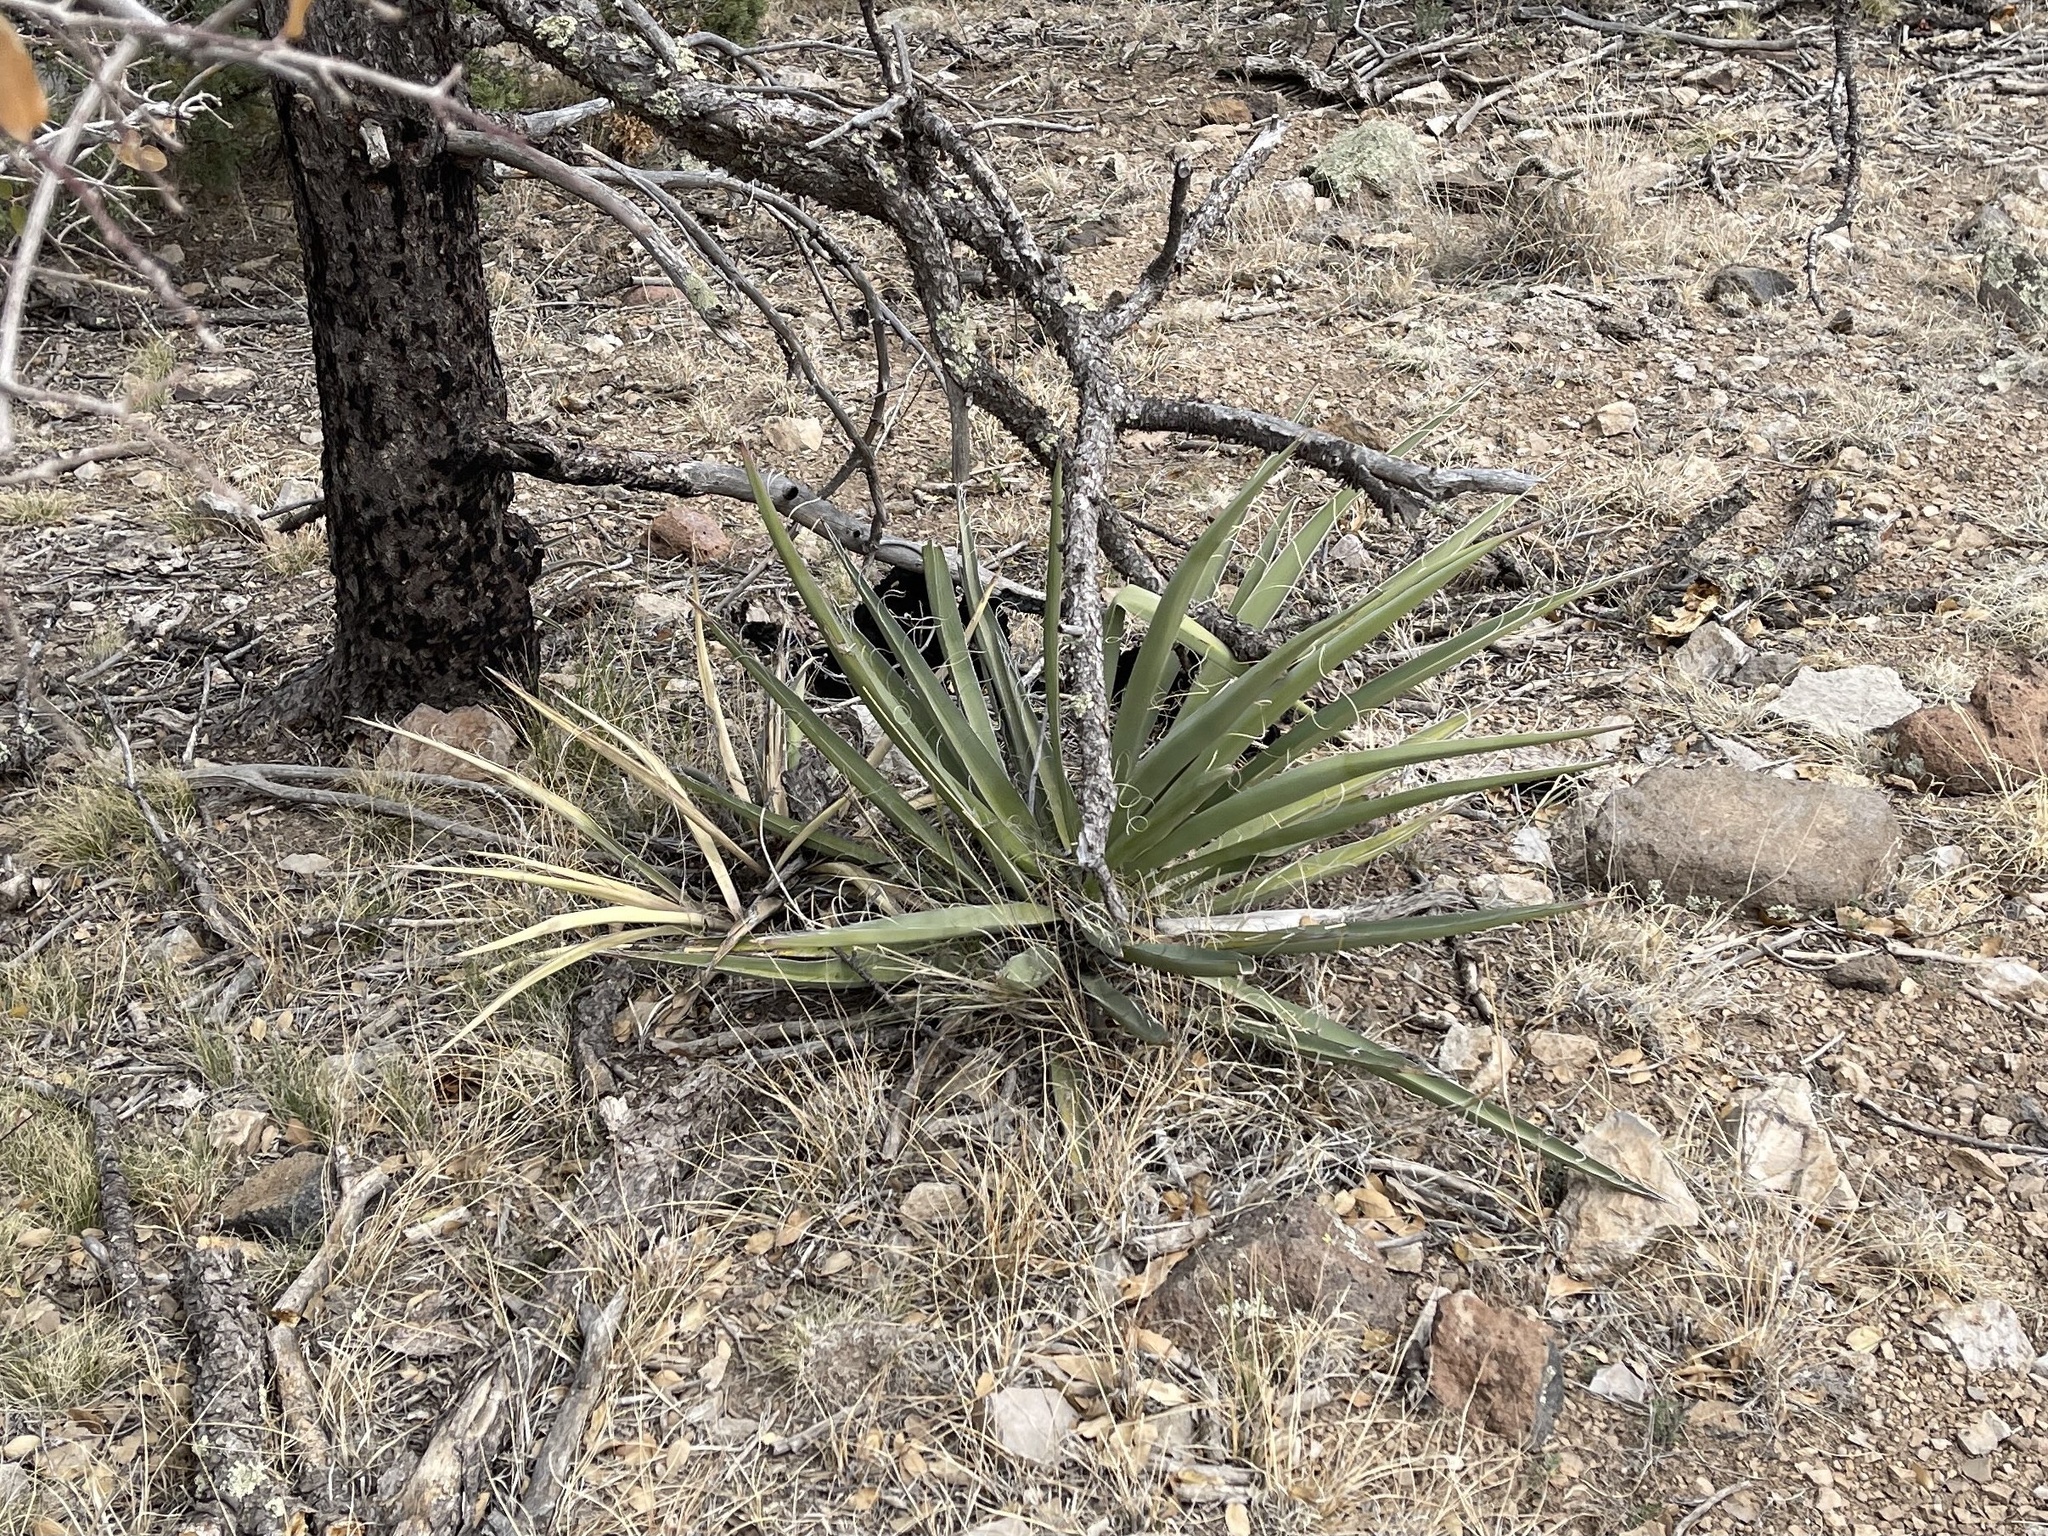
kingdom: Plantae
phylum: Tracheophyta
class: Liliopsida
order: Asparagales
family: Asparagaceae
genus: Yucca
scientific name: Yucca baccata
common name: Banana yucca
